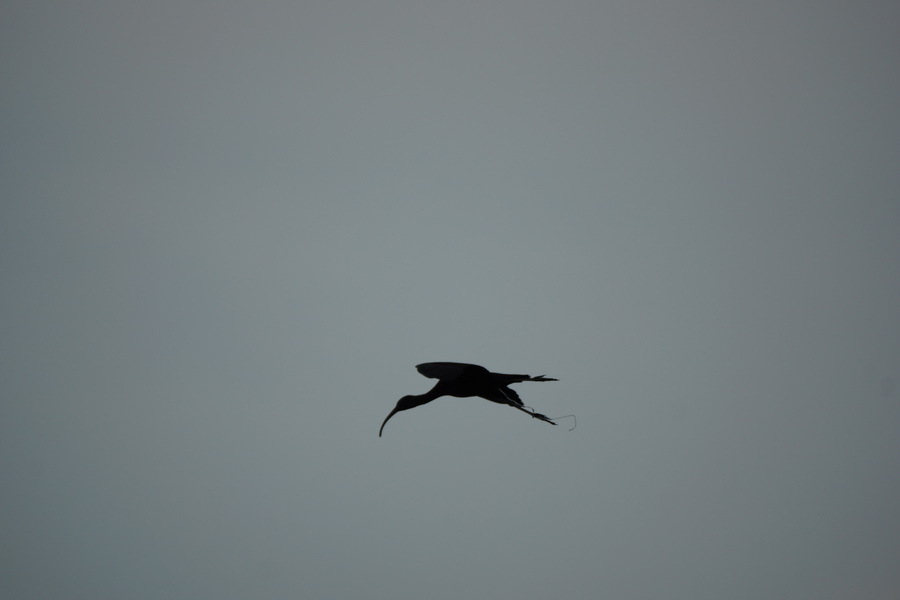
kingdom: Animalia
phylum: Chordata
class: Aves
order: Pelecaniformes
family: Threskiornithidae
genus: Plegadis
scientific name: Plegadis falcinellus
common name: Glossy ibis
